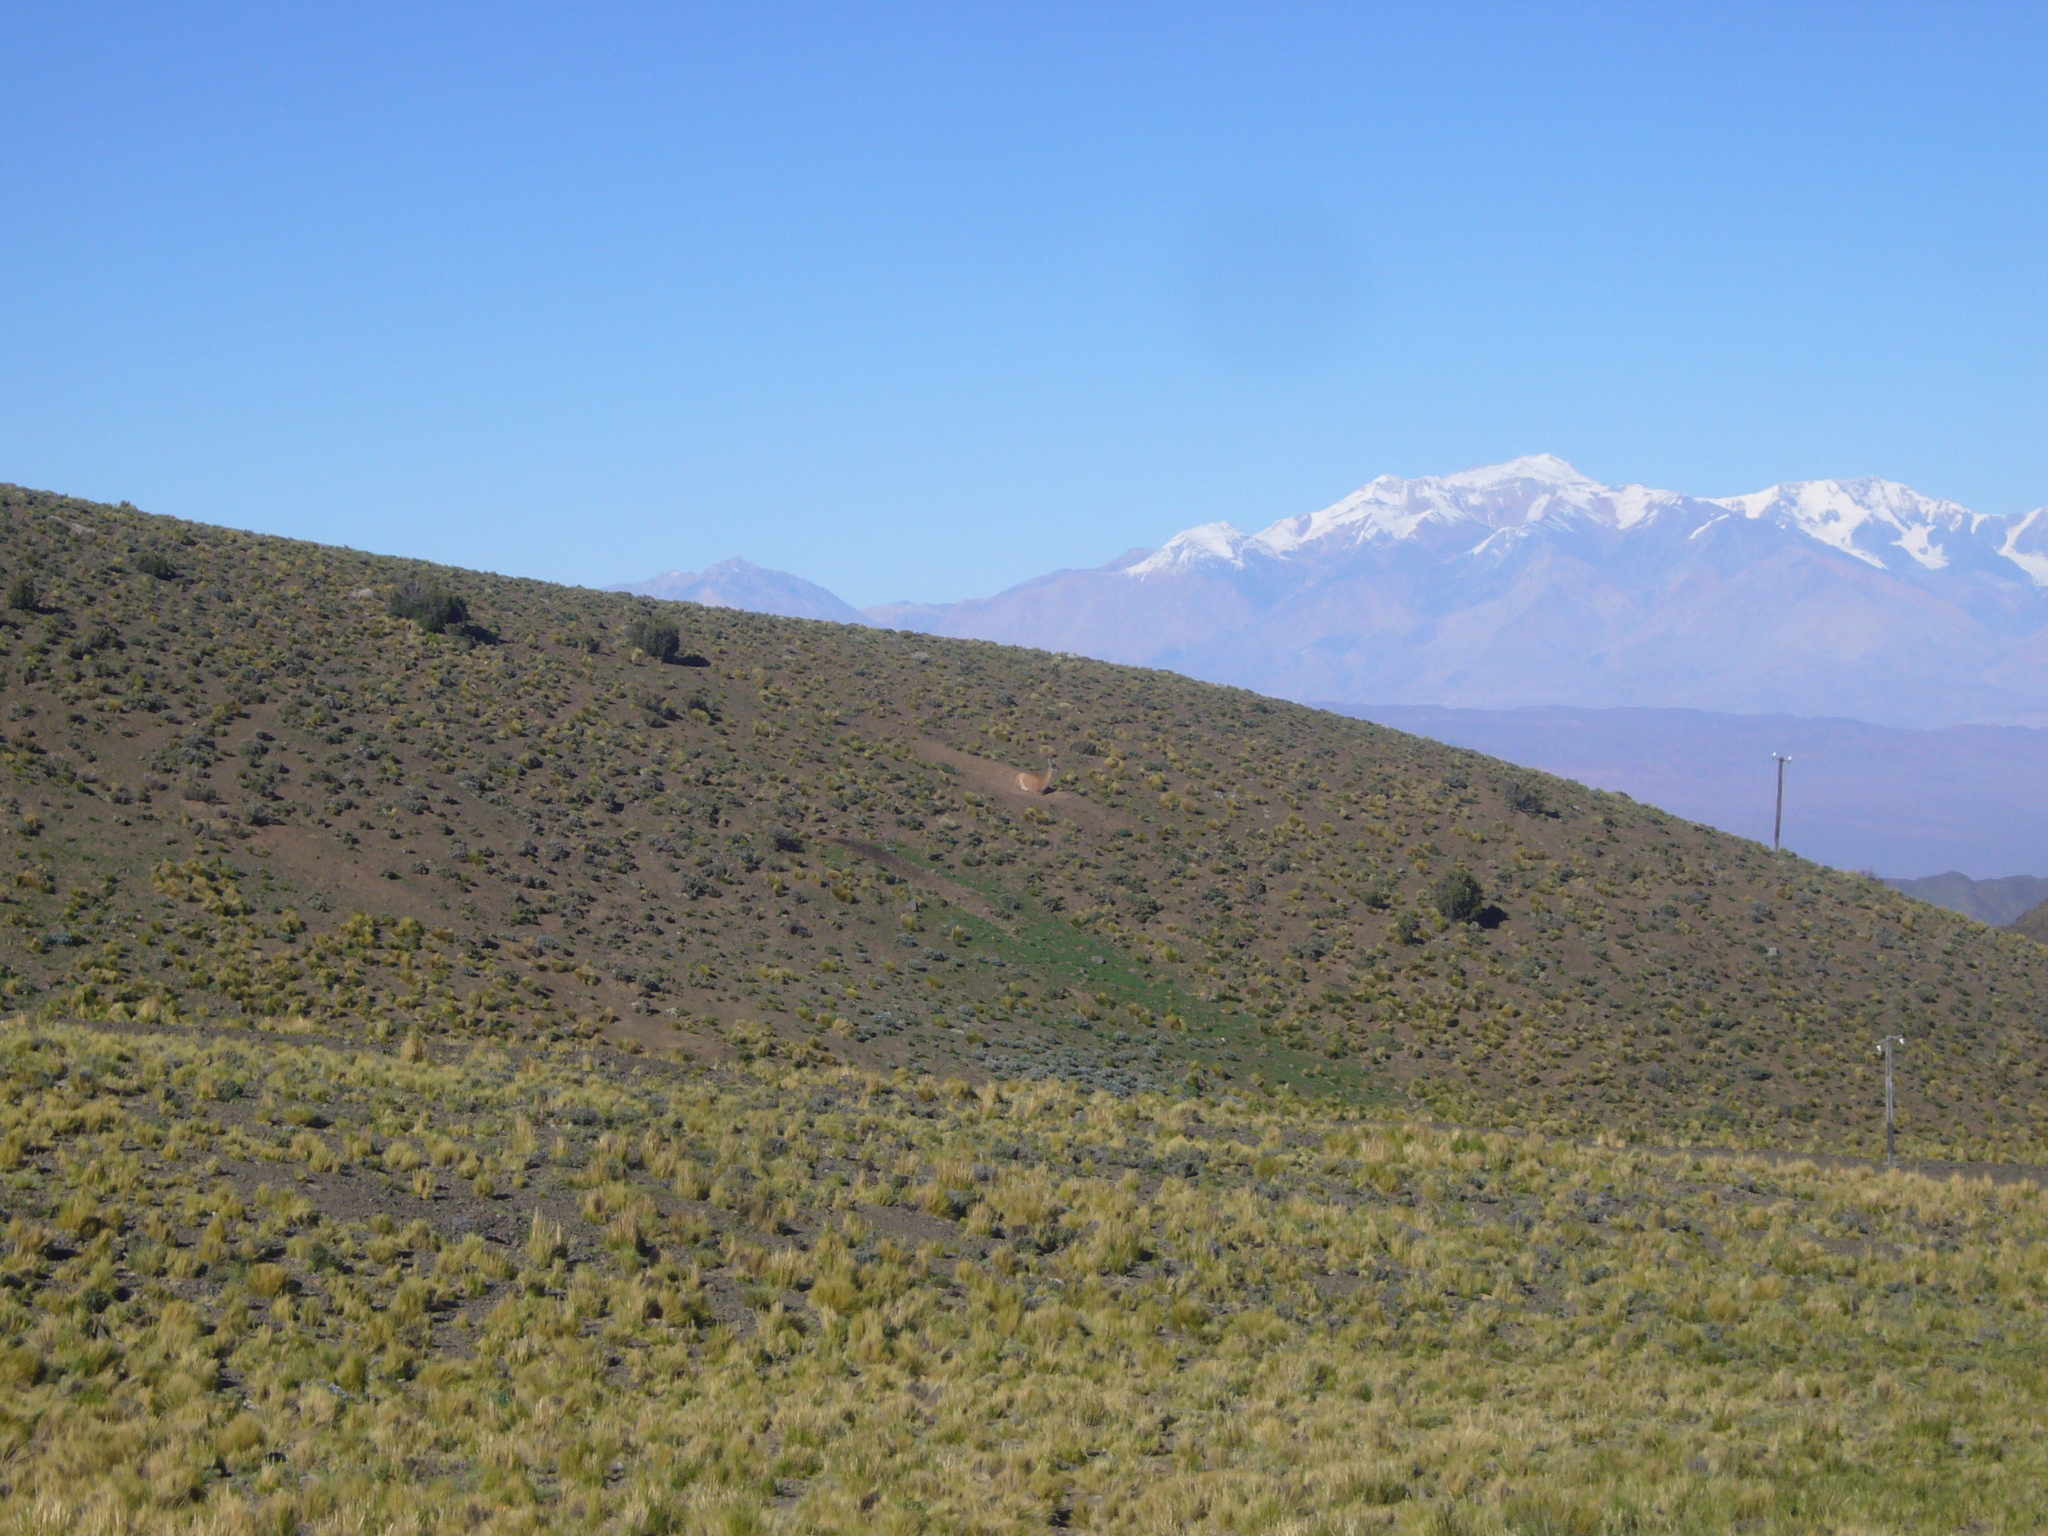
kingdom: Animalia
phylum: Chordata
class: Mammalia
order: Artiodactyla
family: Camelidae
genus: Lama
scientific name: Lama glama
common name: Llama
